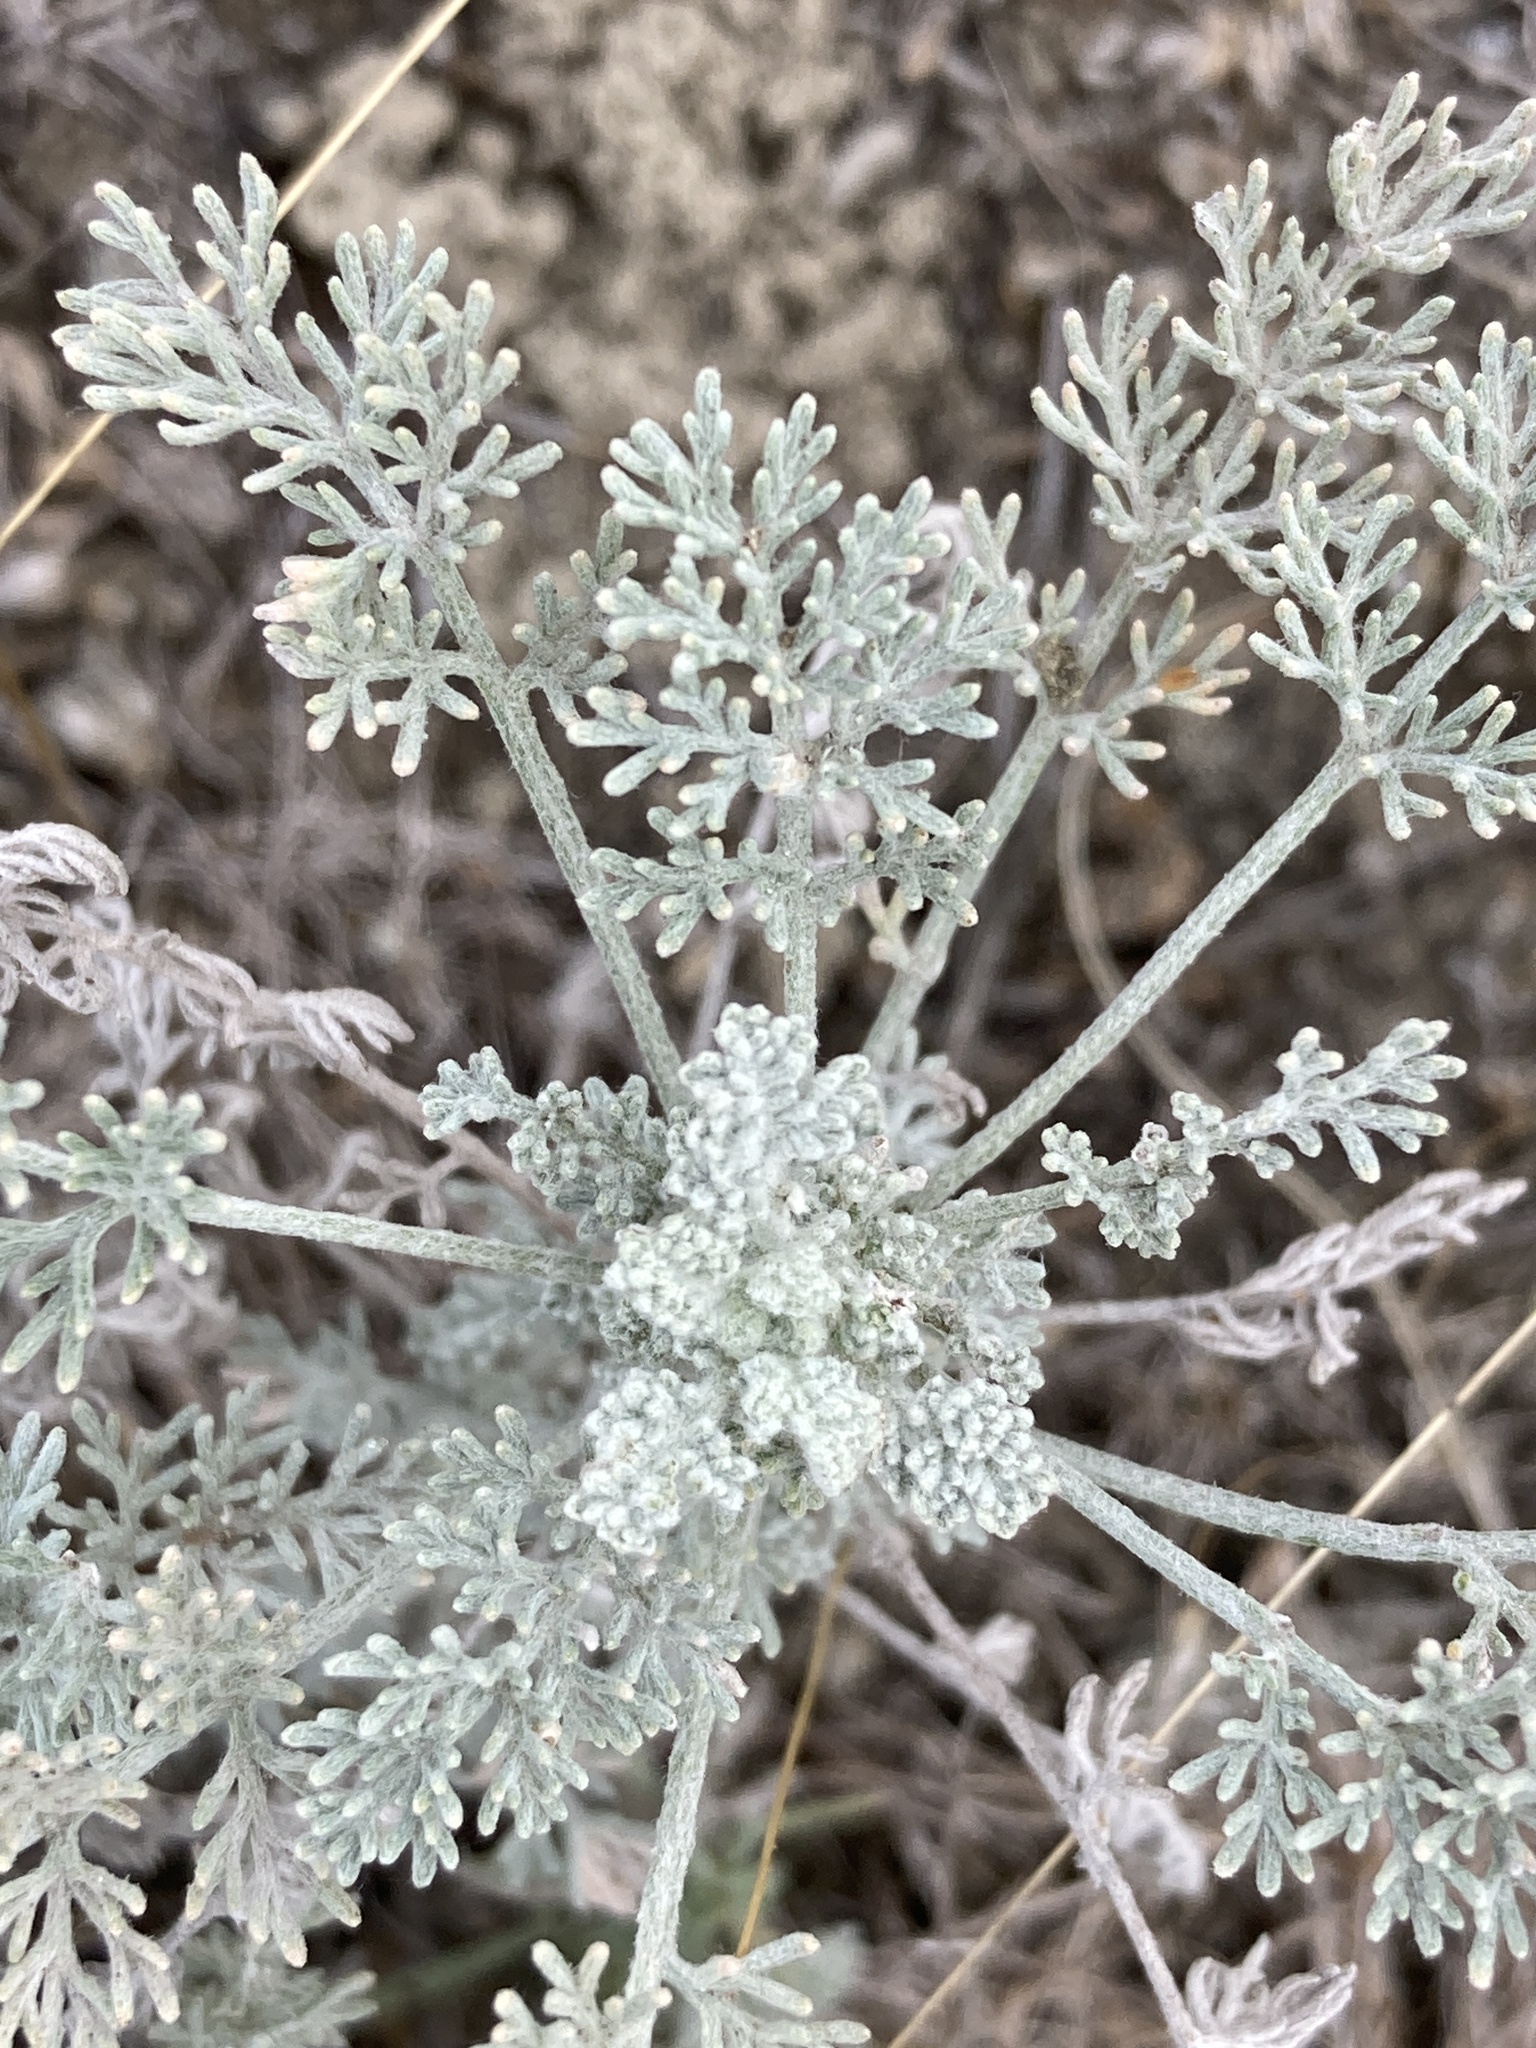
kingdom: Plantae
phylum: Tracheophyta
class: Magnoliopsida
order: Asterales
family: Asteraceae
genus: Artemisia
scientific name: Artemisia santonicum
